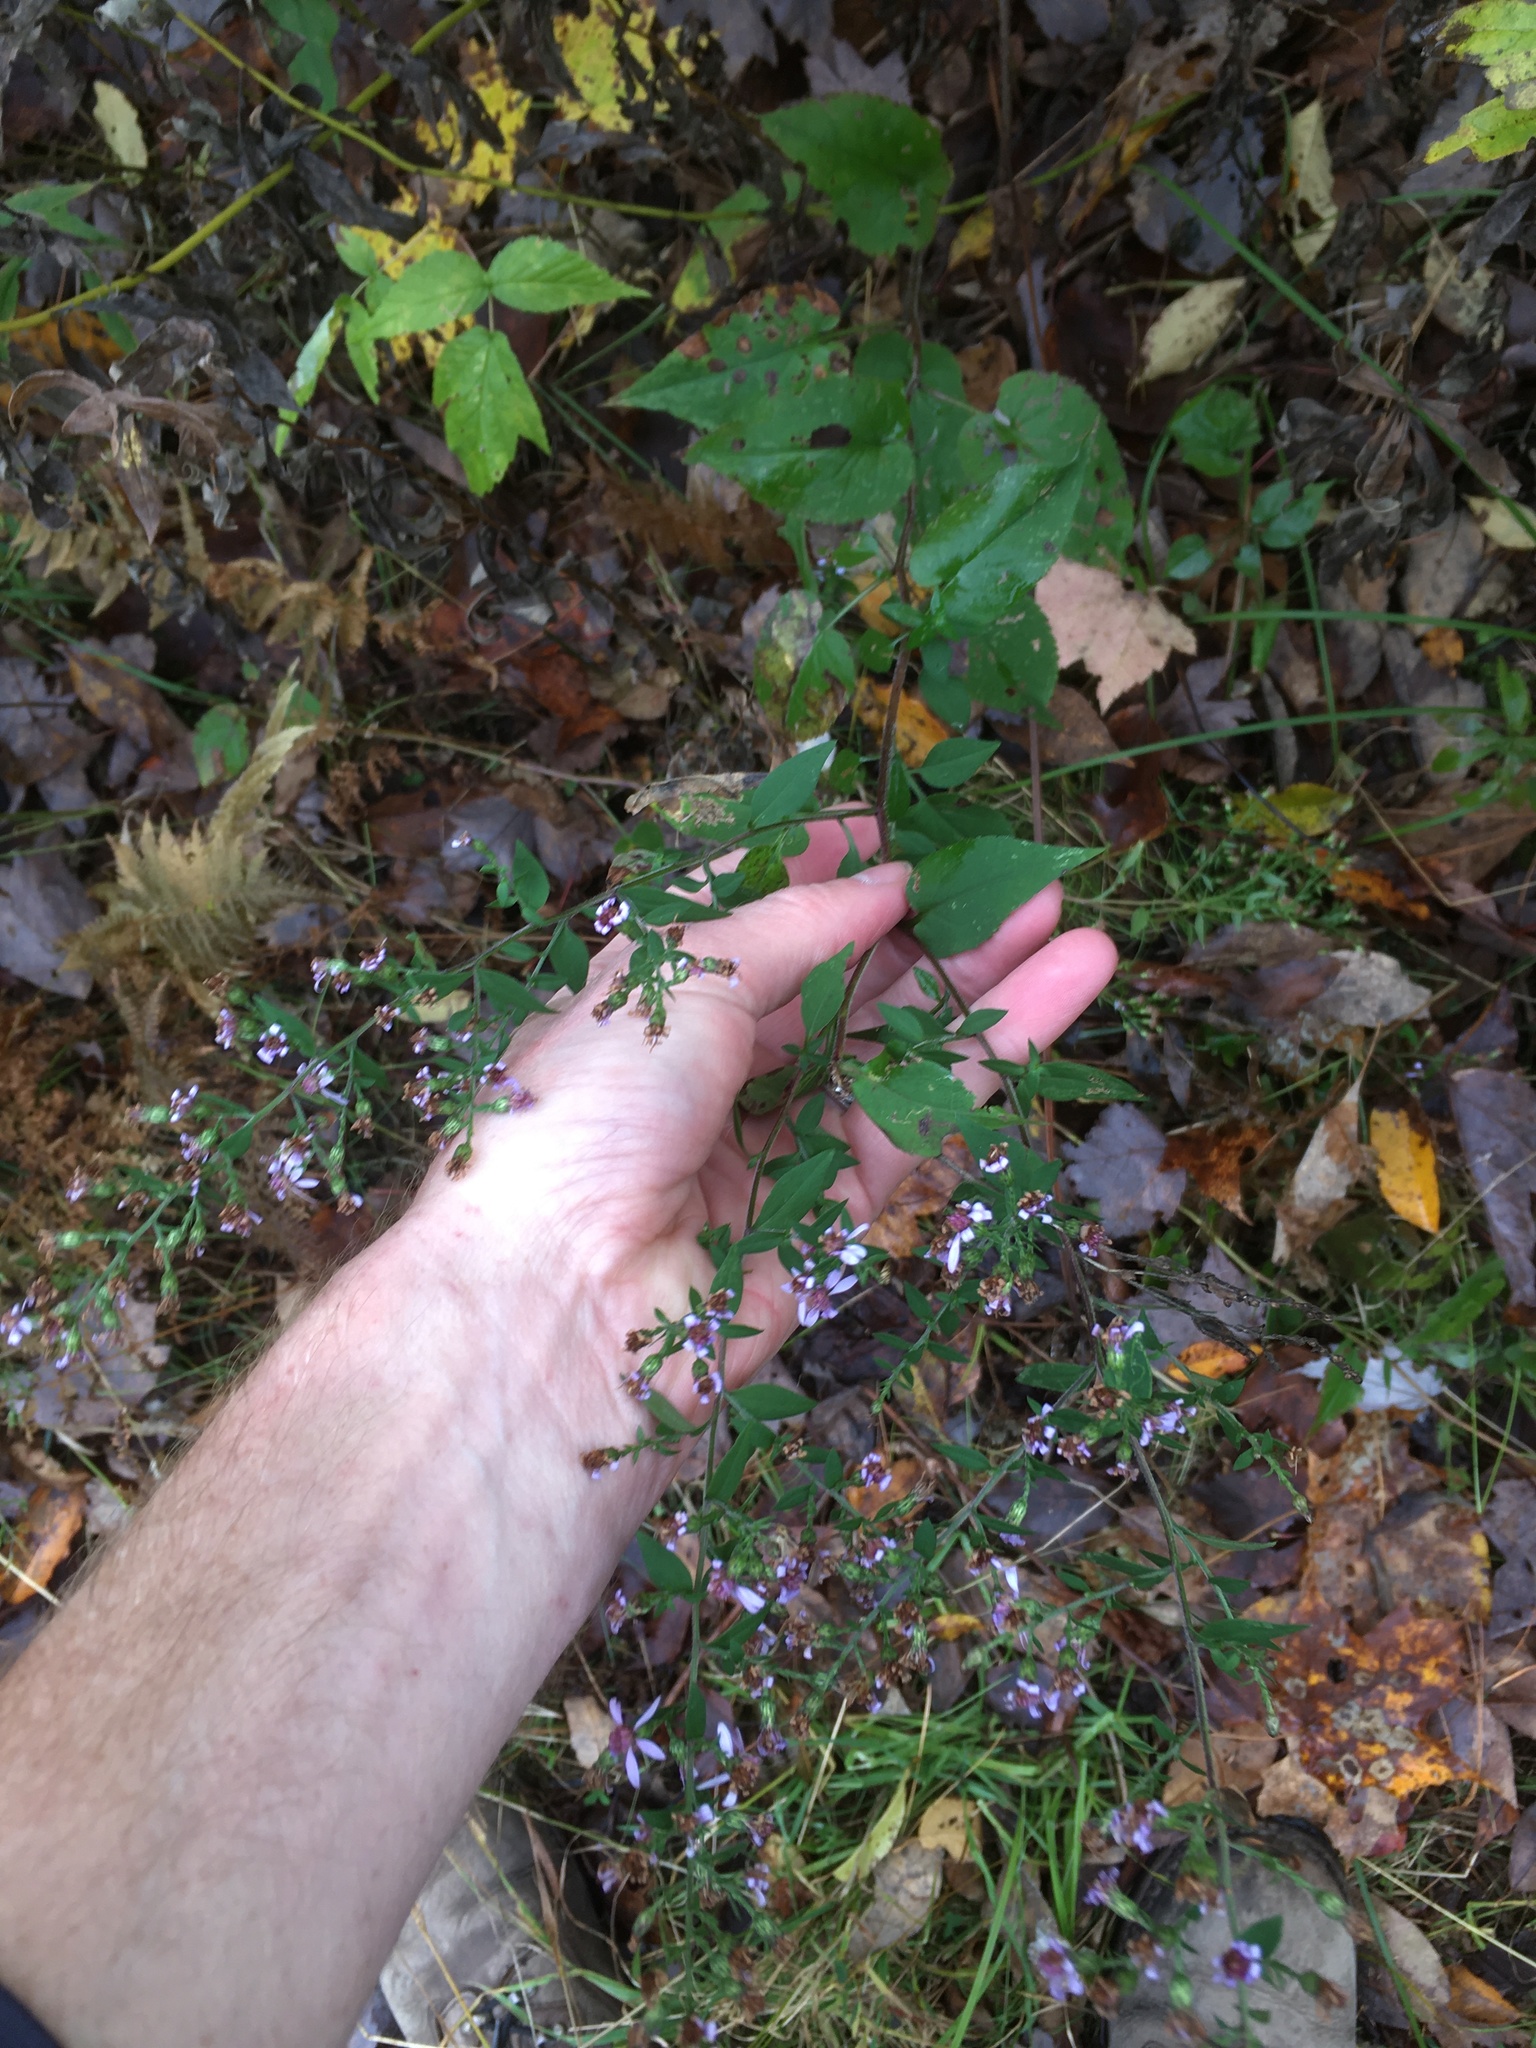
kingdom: Plantae
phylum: Tracheophyta
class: Magnoliopsida
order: Asterales
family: Asteraceae
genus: Symphyotrichum
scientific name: Symphyotrichum cordifolium
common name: Beeweed
